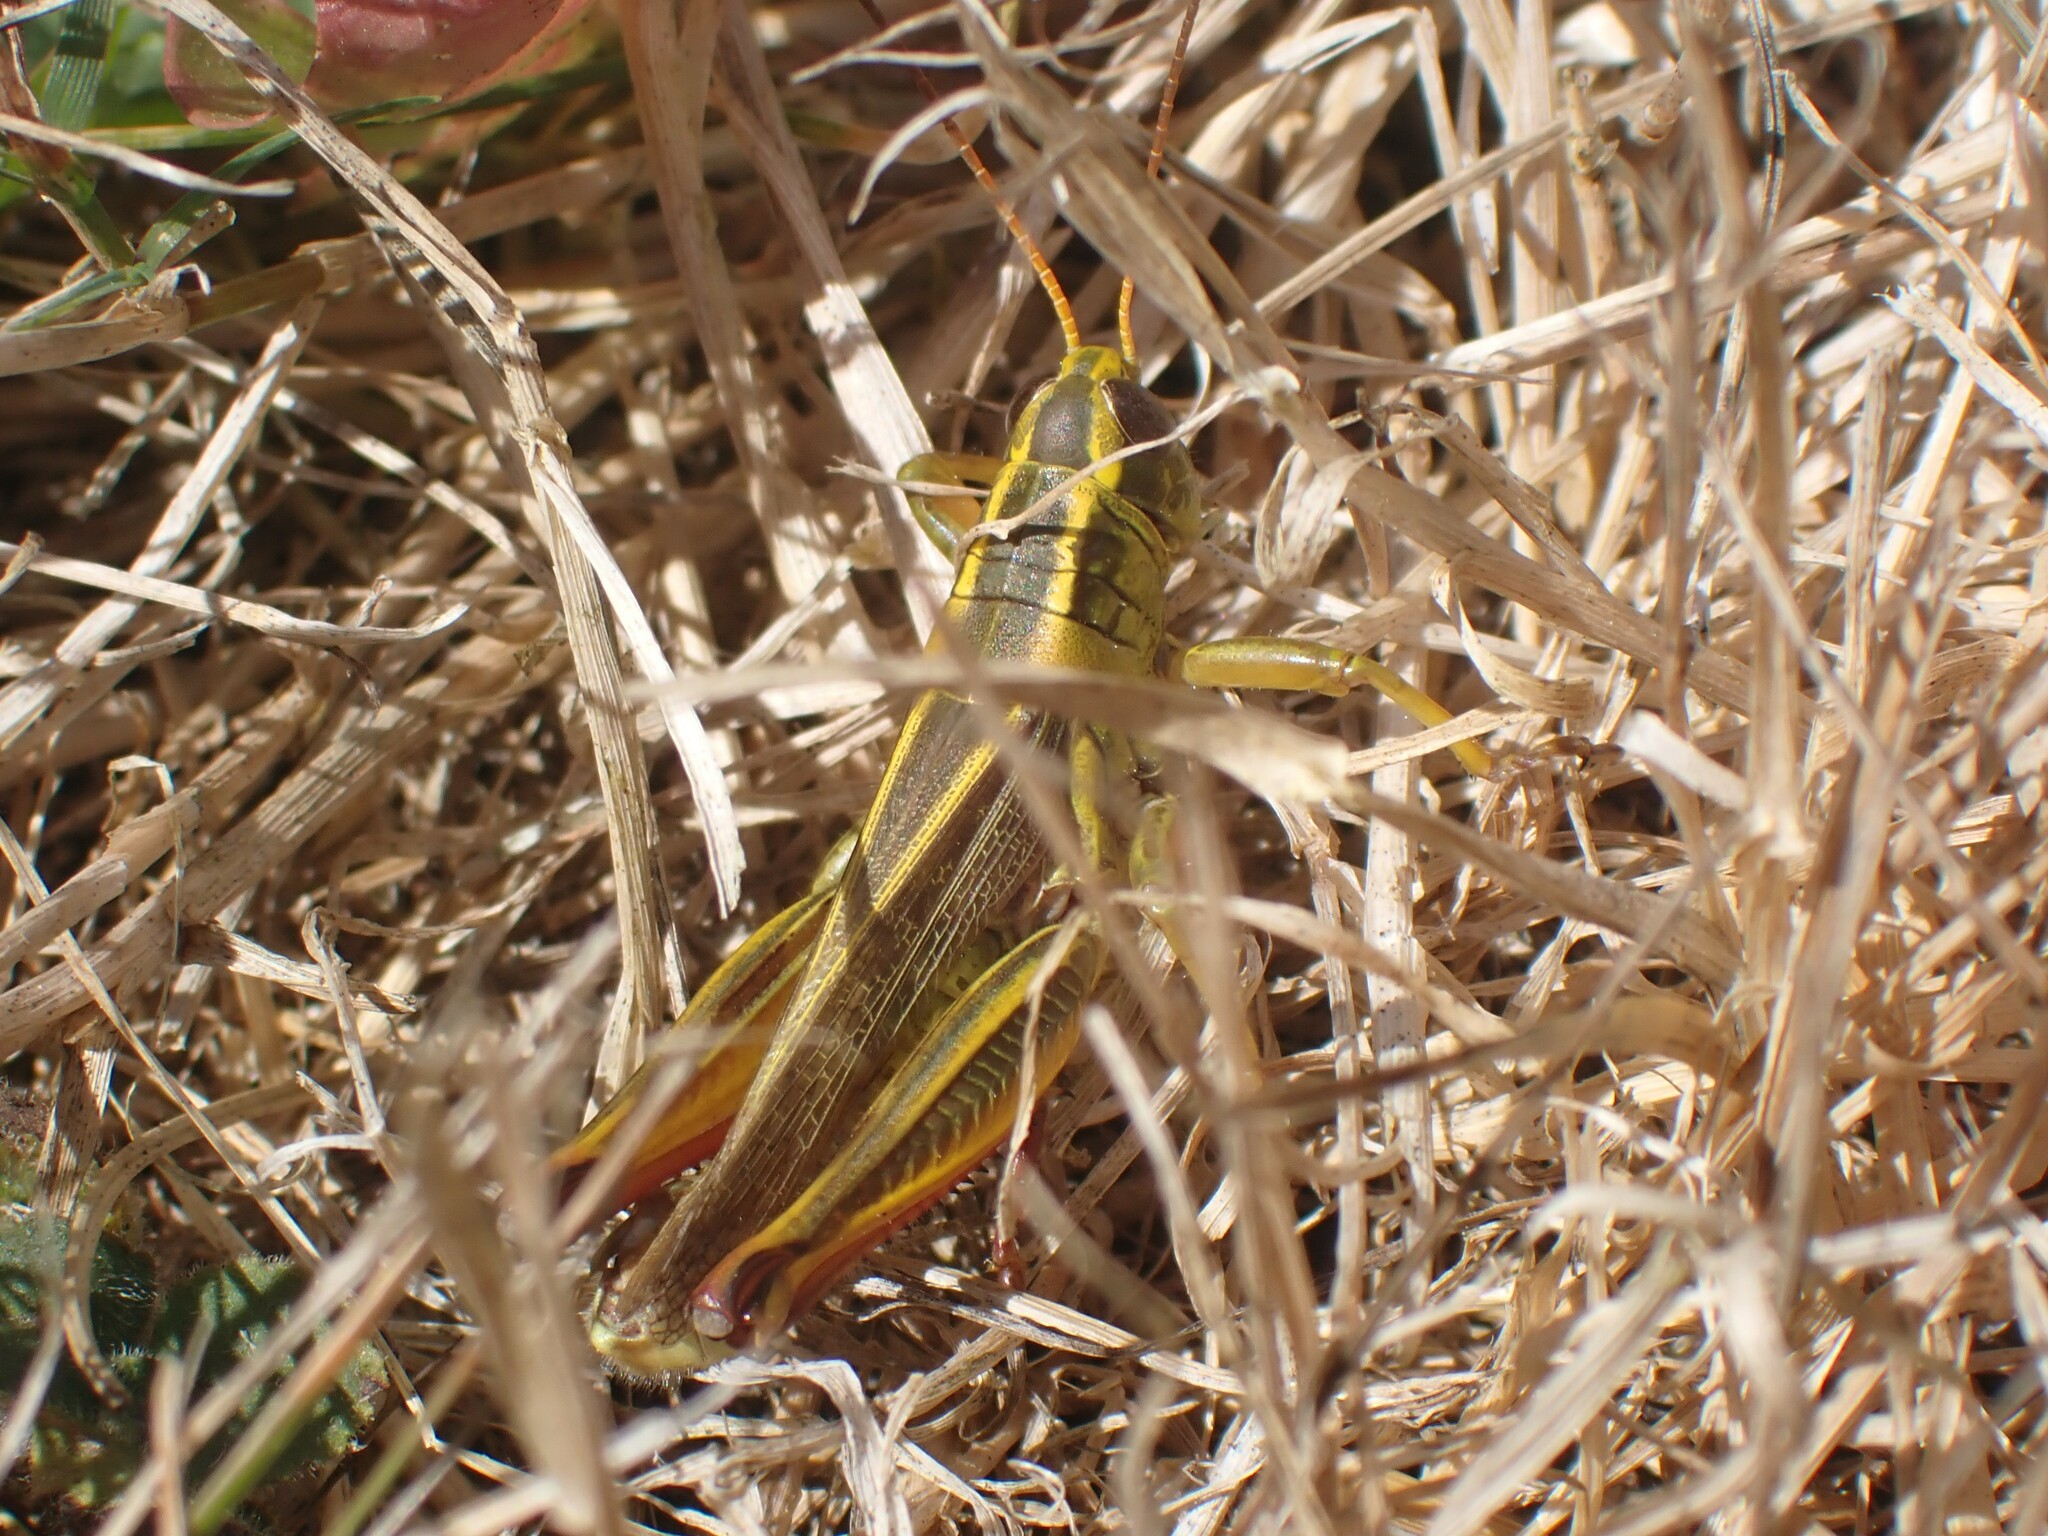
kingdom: Animalia
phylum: Arthropoda
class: Insecta
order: Orthoptera
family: Acrididae
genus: Melanoplus
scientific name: Melanoplus bivittatus
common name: Two-striped grasshopper
